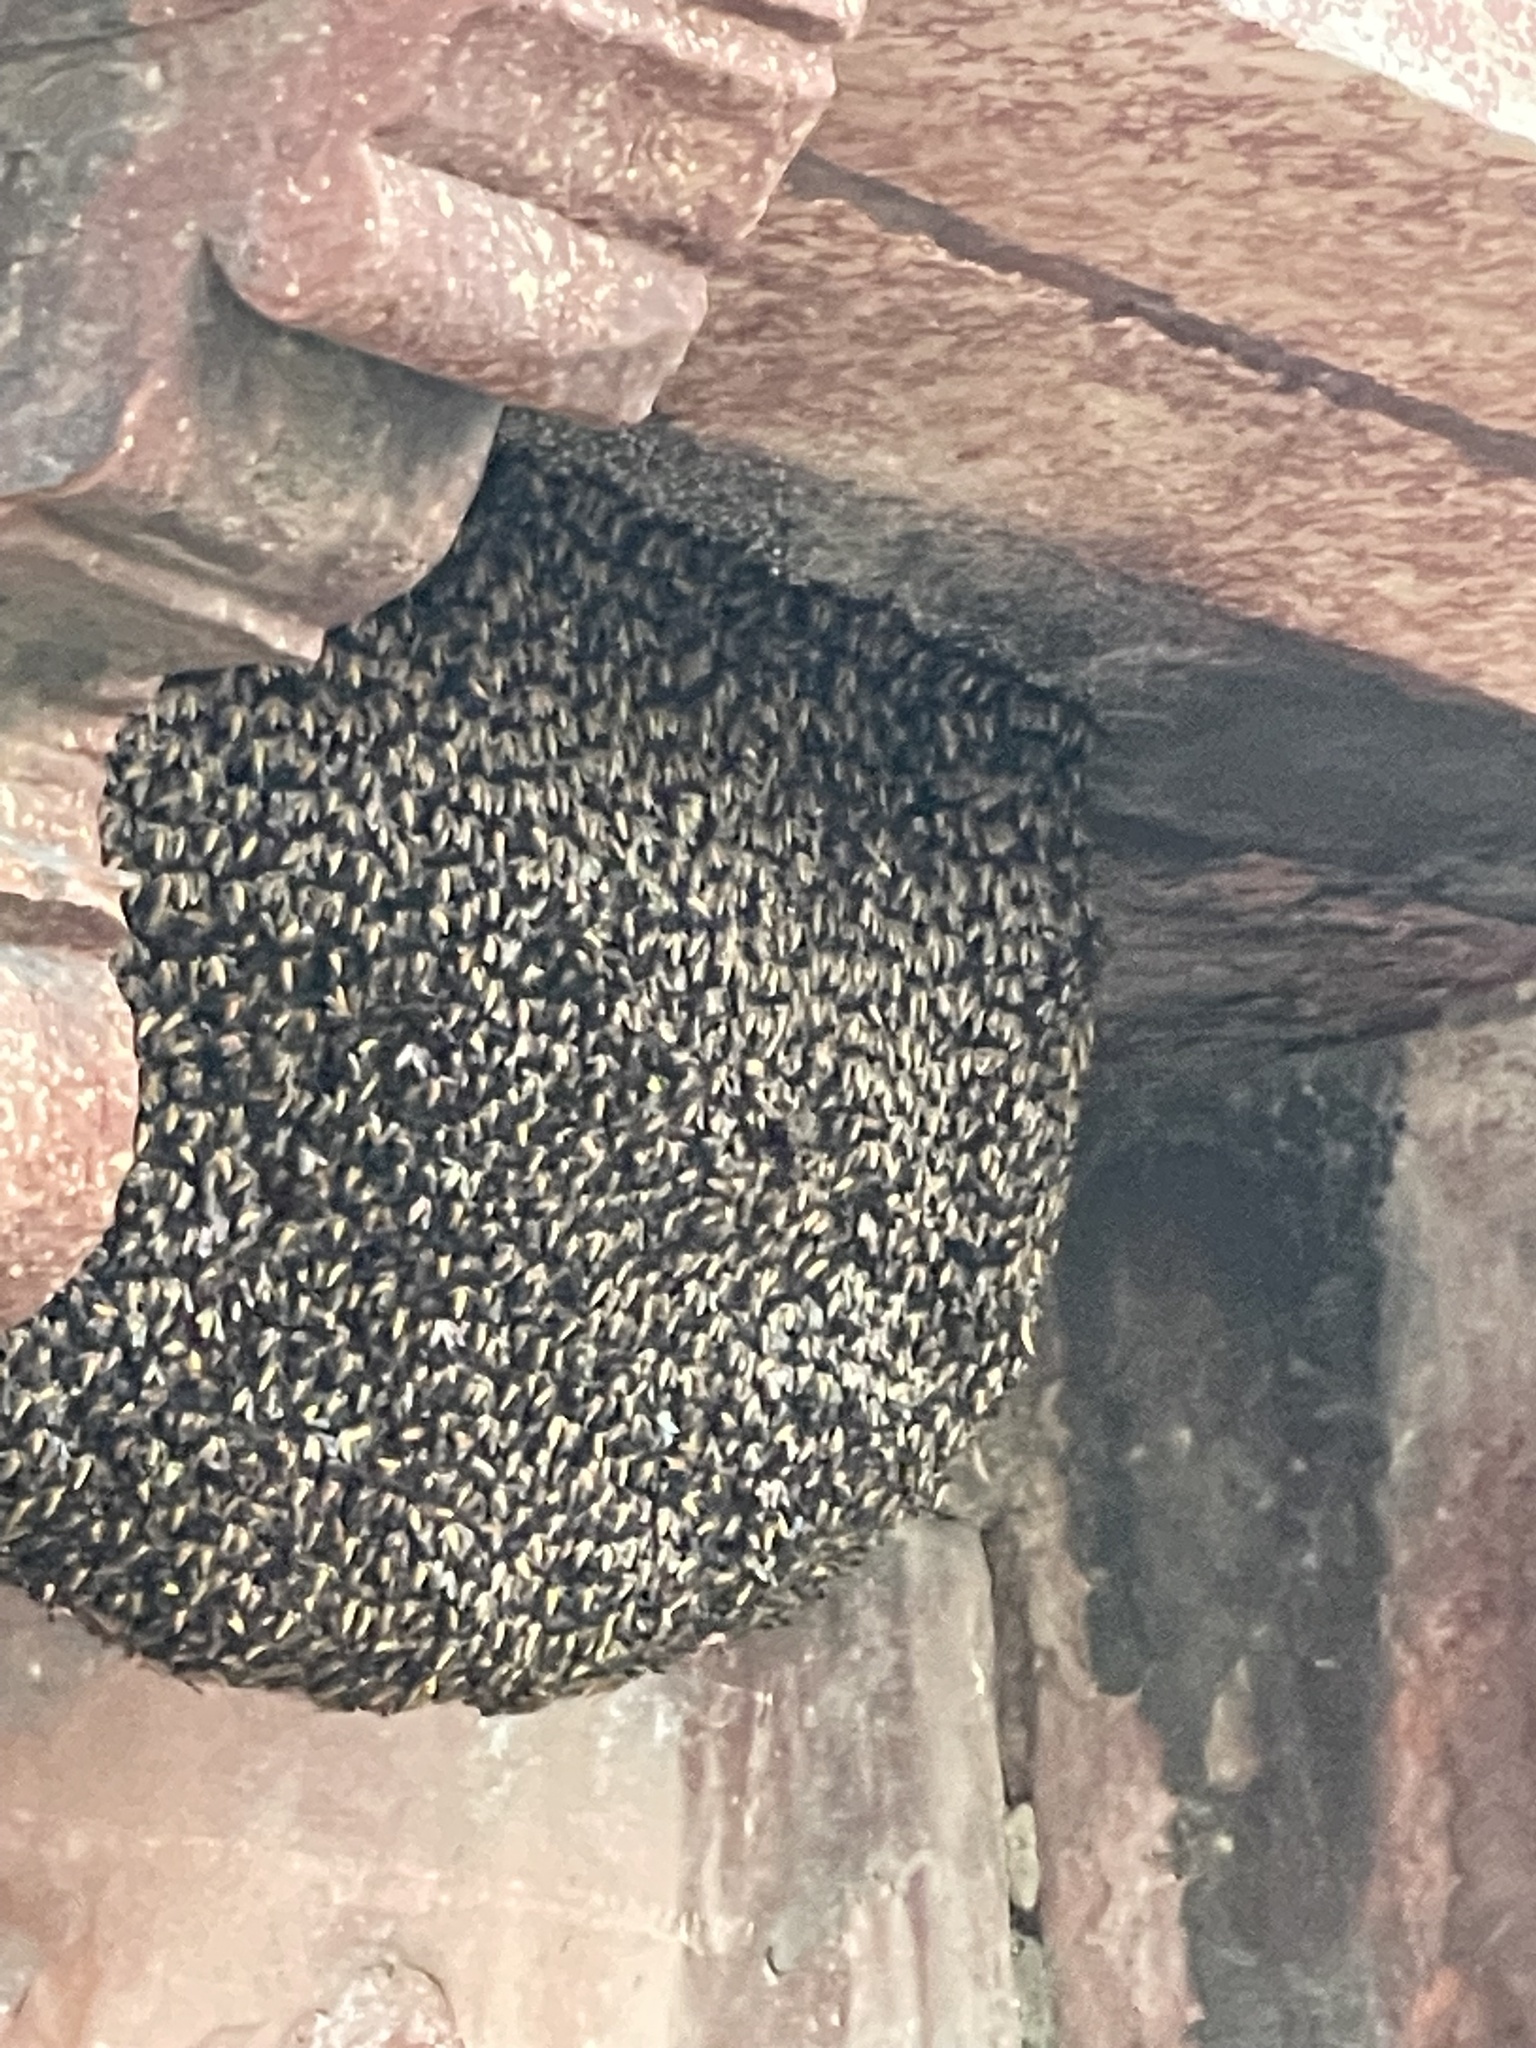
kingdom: Animalia
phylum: Arthropoda
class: Insecta
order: Hymenoptera
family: Apidae
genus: Apis
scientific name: Apis dorsata
